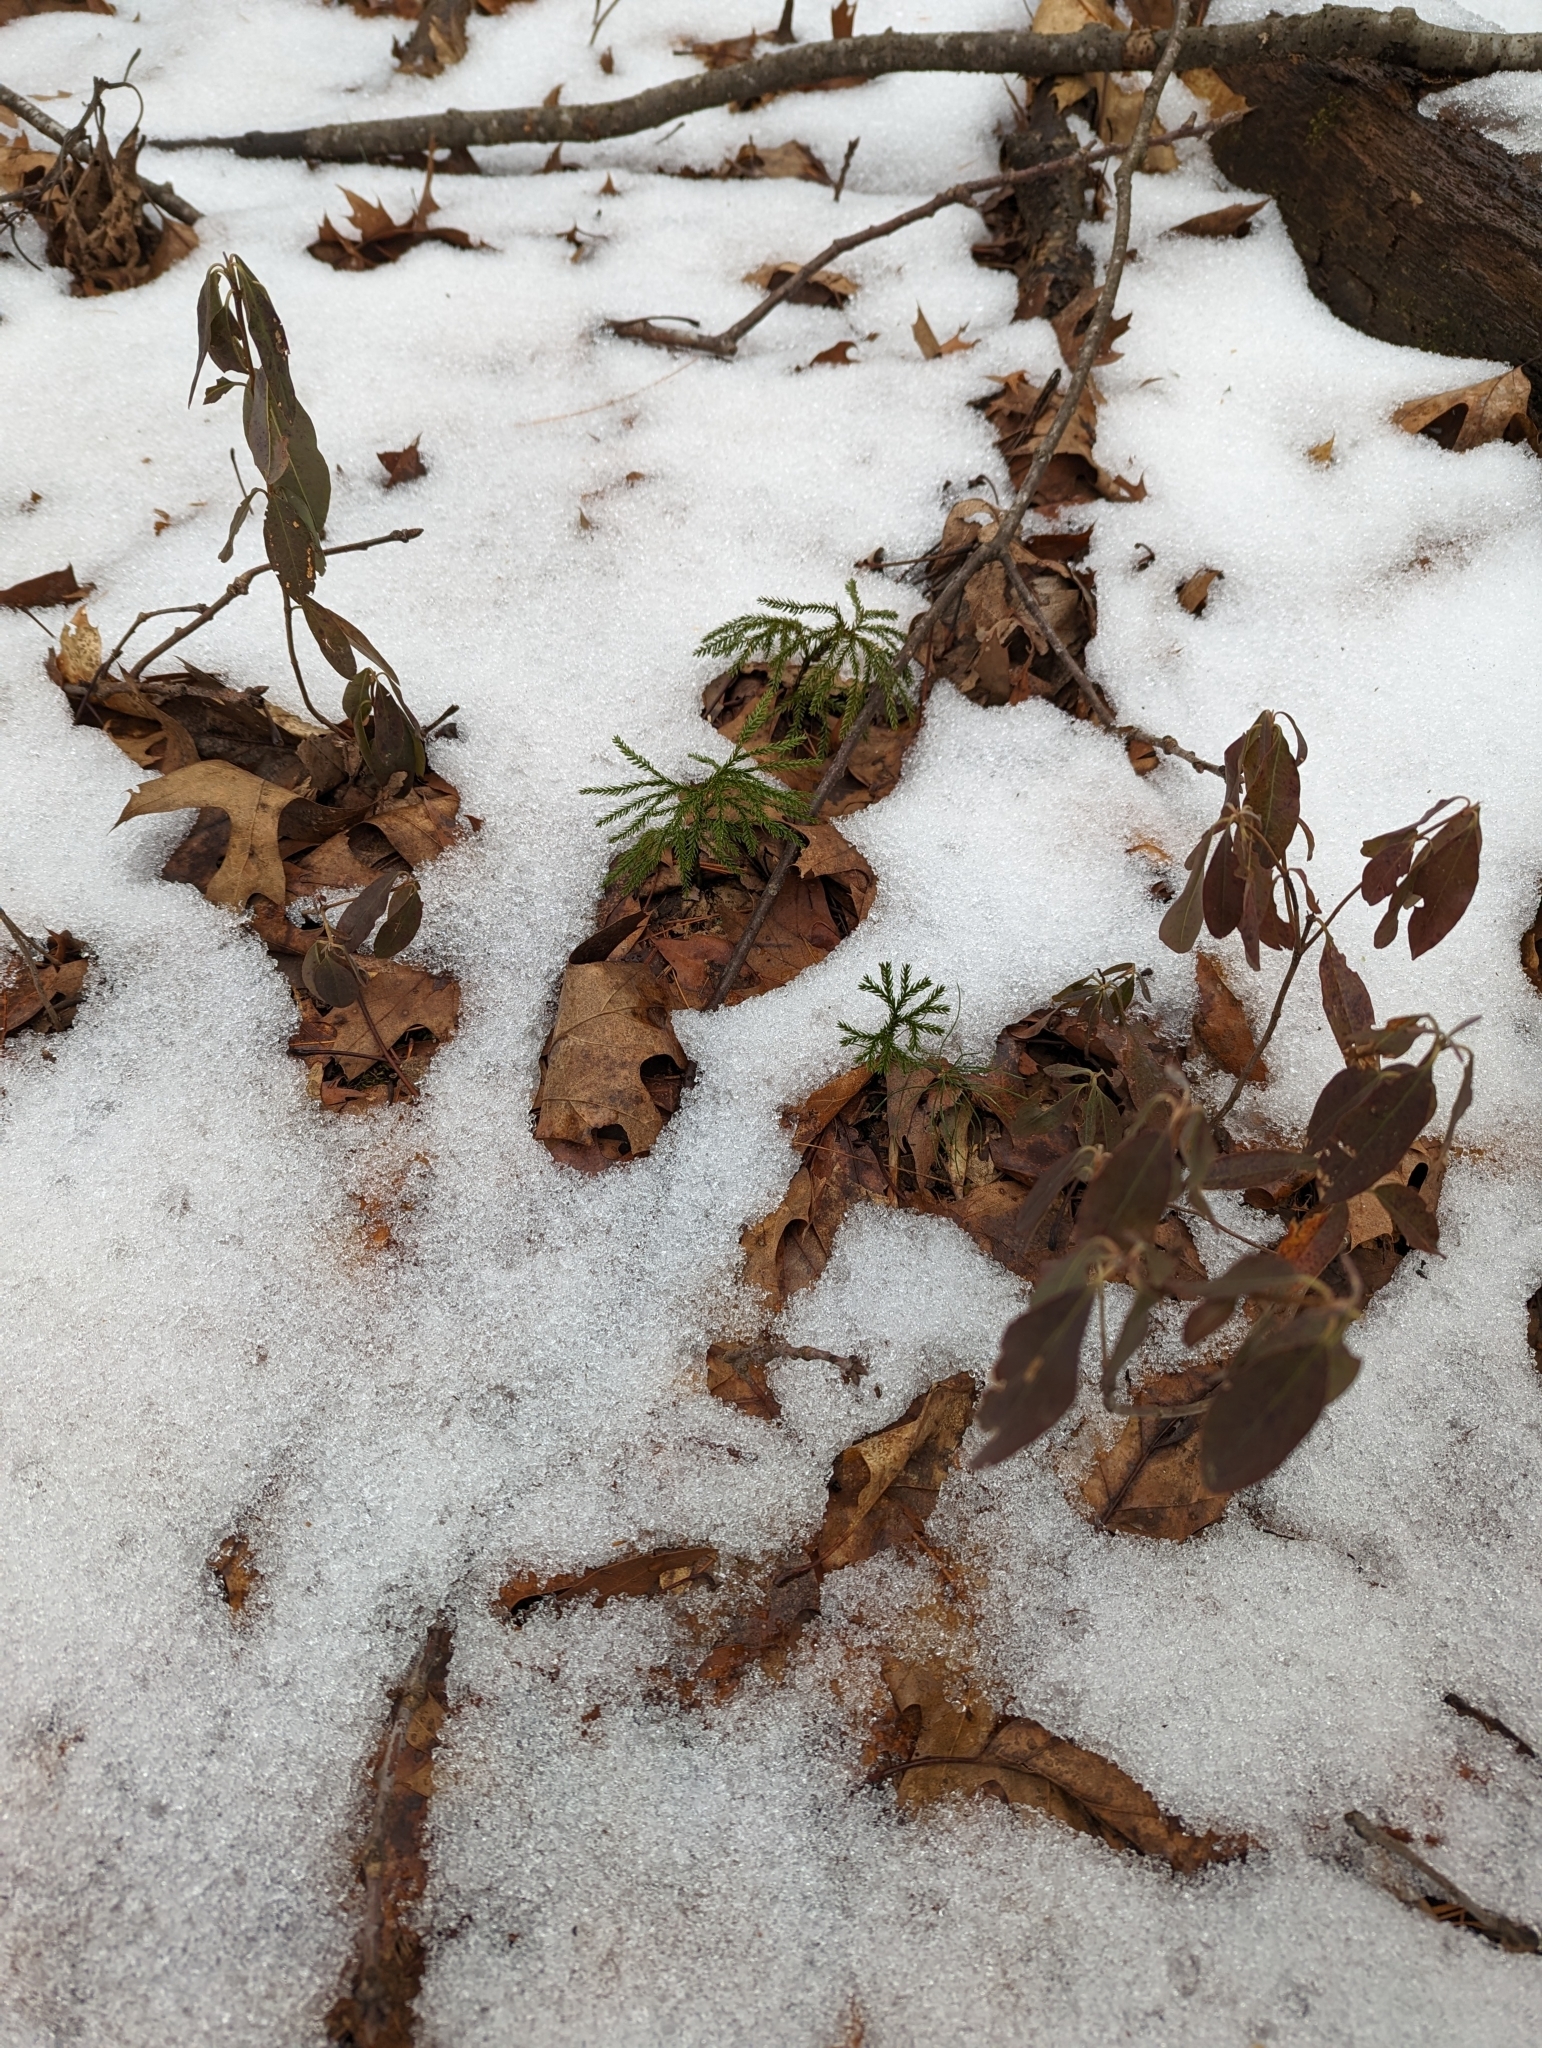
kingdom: Plantae
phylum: Tracheophyta
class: Magnoliopsida
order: Ericales
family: Ericaceae
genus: Kalmia
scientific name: Kalmia angustifolia
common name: Sheep-laurel
